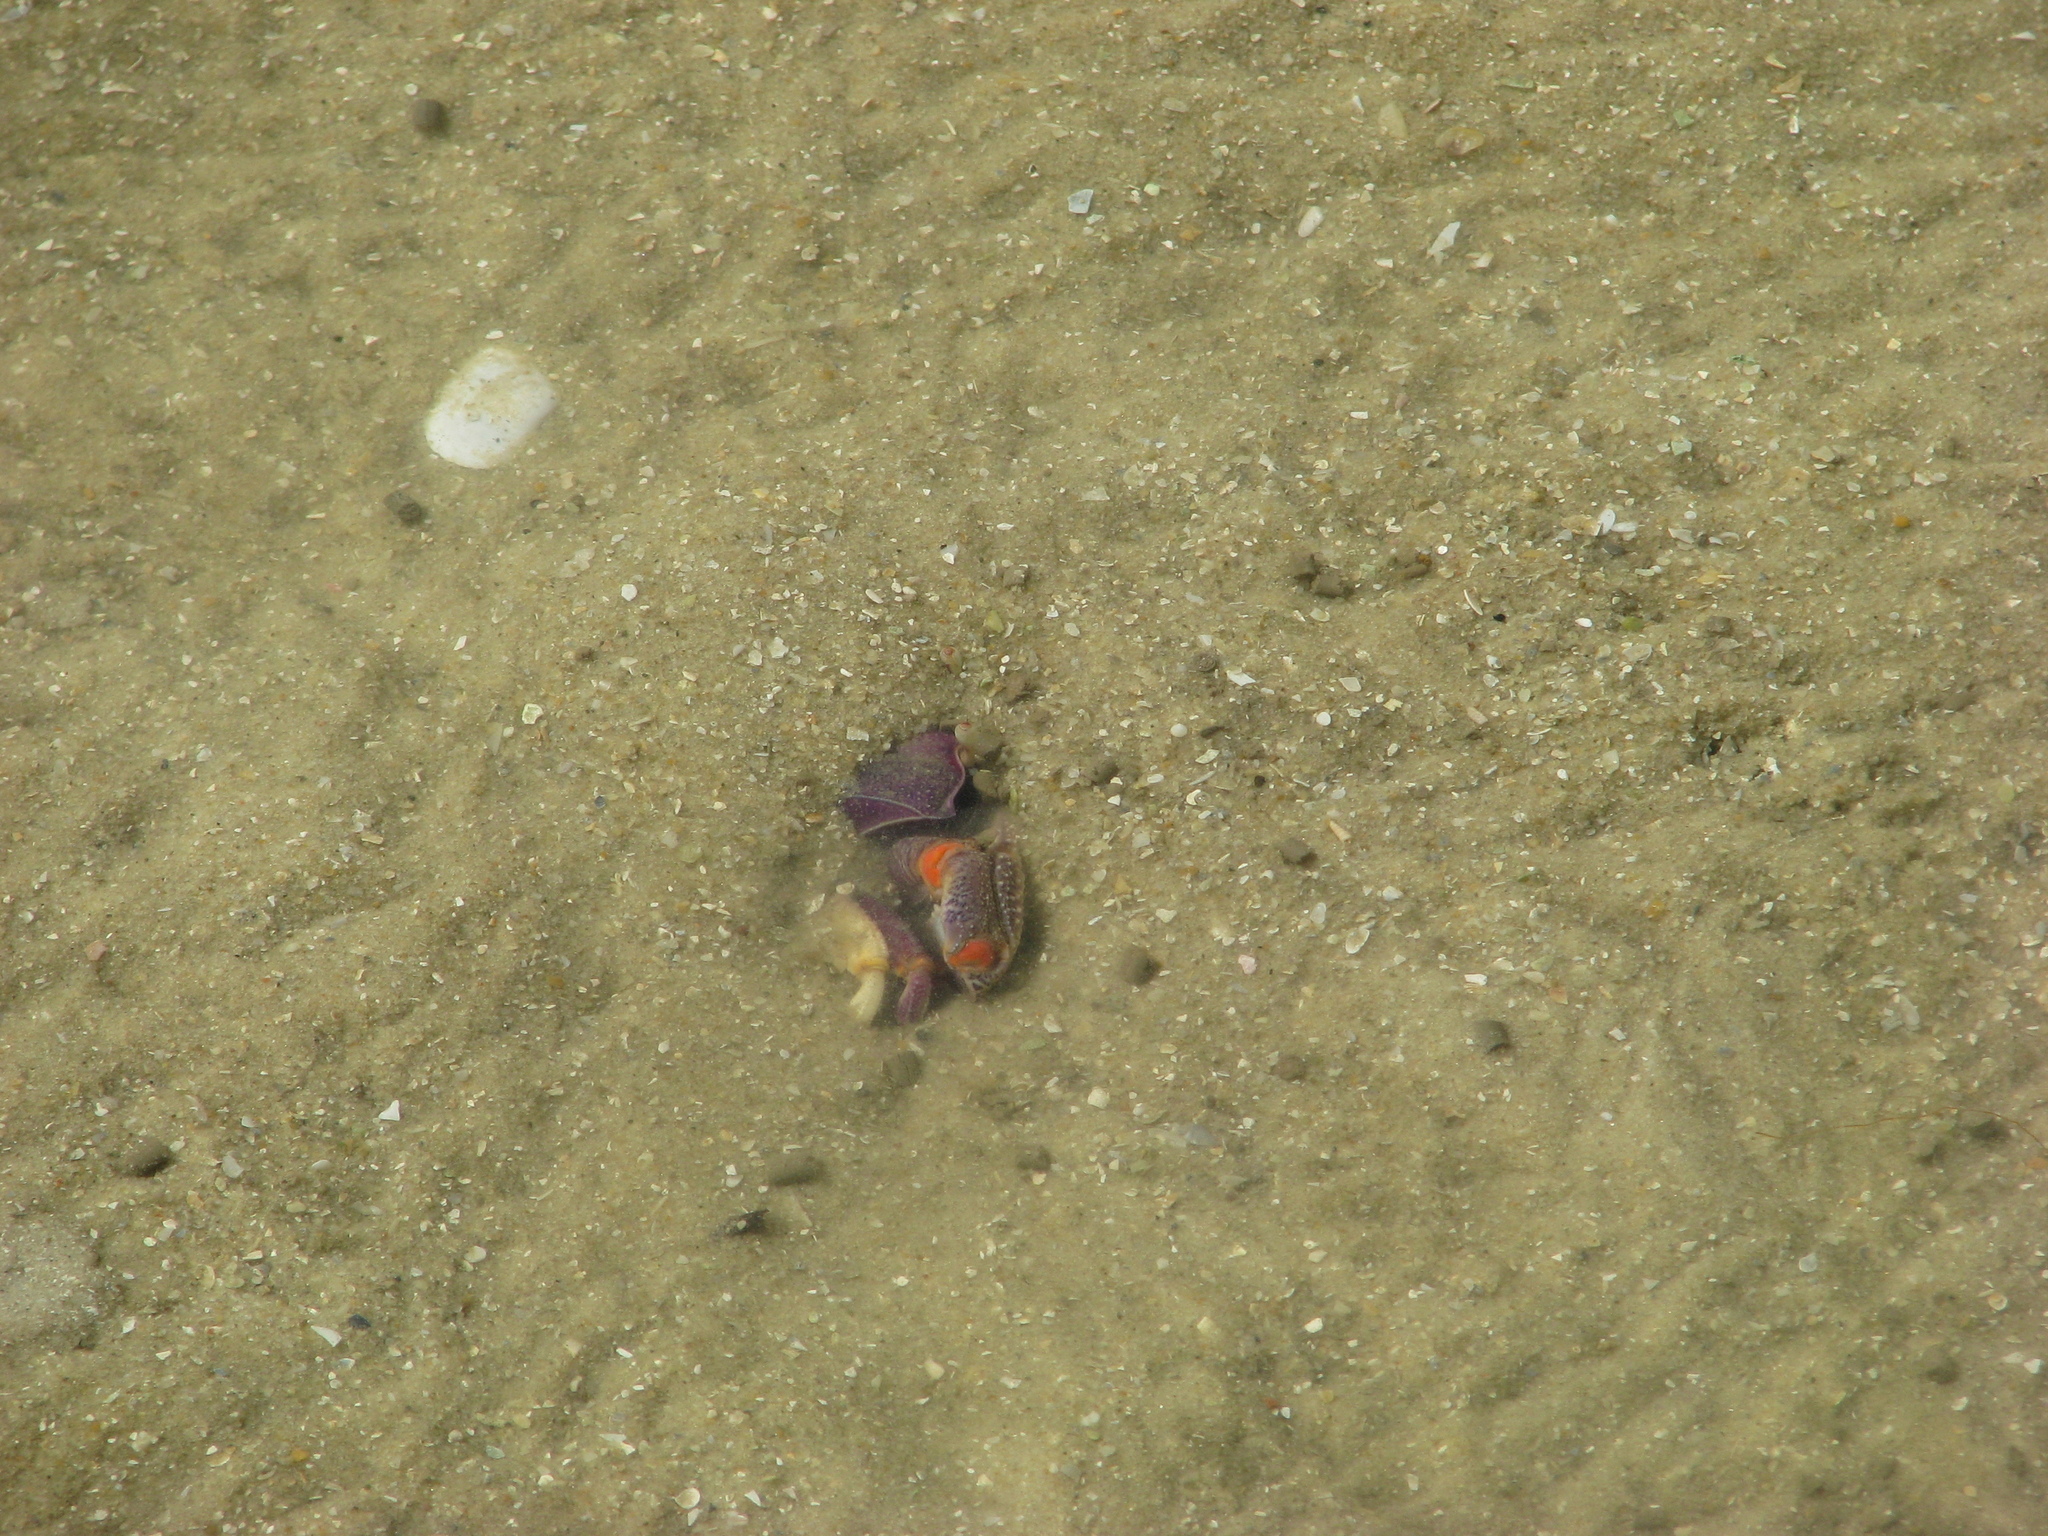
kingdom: Animalia
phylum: Arthropoda
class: Malacostraca
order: Decapoda
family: Ocypodidae
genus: Afruca
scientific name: Afruca tangeri
